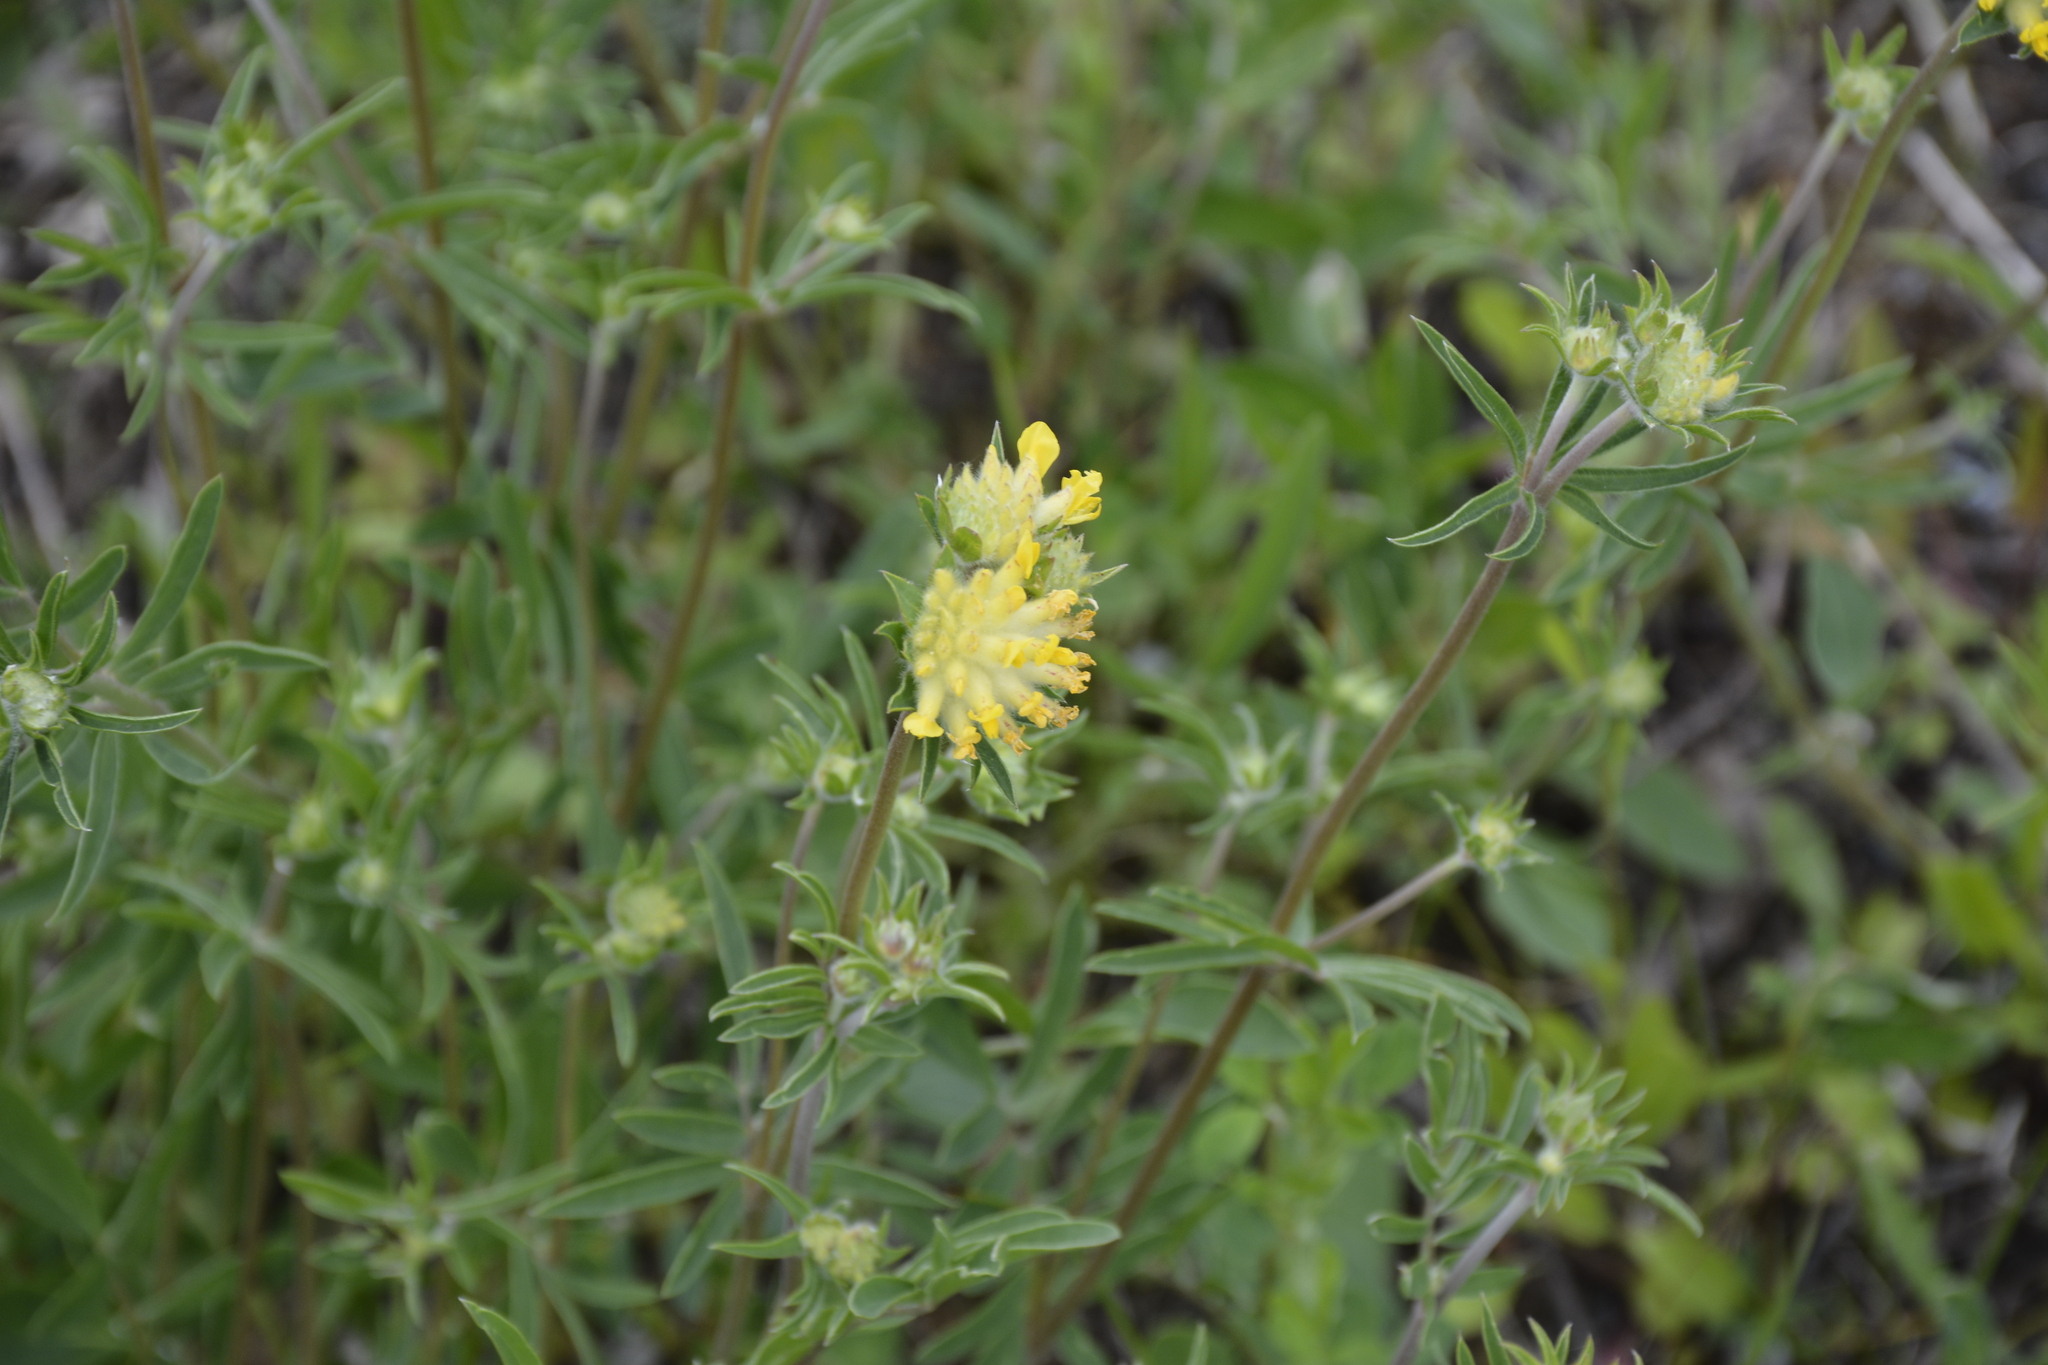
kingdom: Plantae
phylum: Tracheophyta
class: Magnoliopsida
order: Fabales
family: Fabaceae
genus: Anthyllis
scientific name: Anthyllis vulneraria
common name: Kidney vetch
